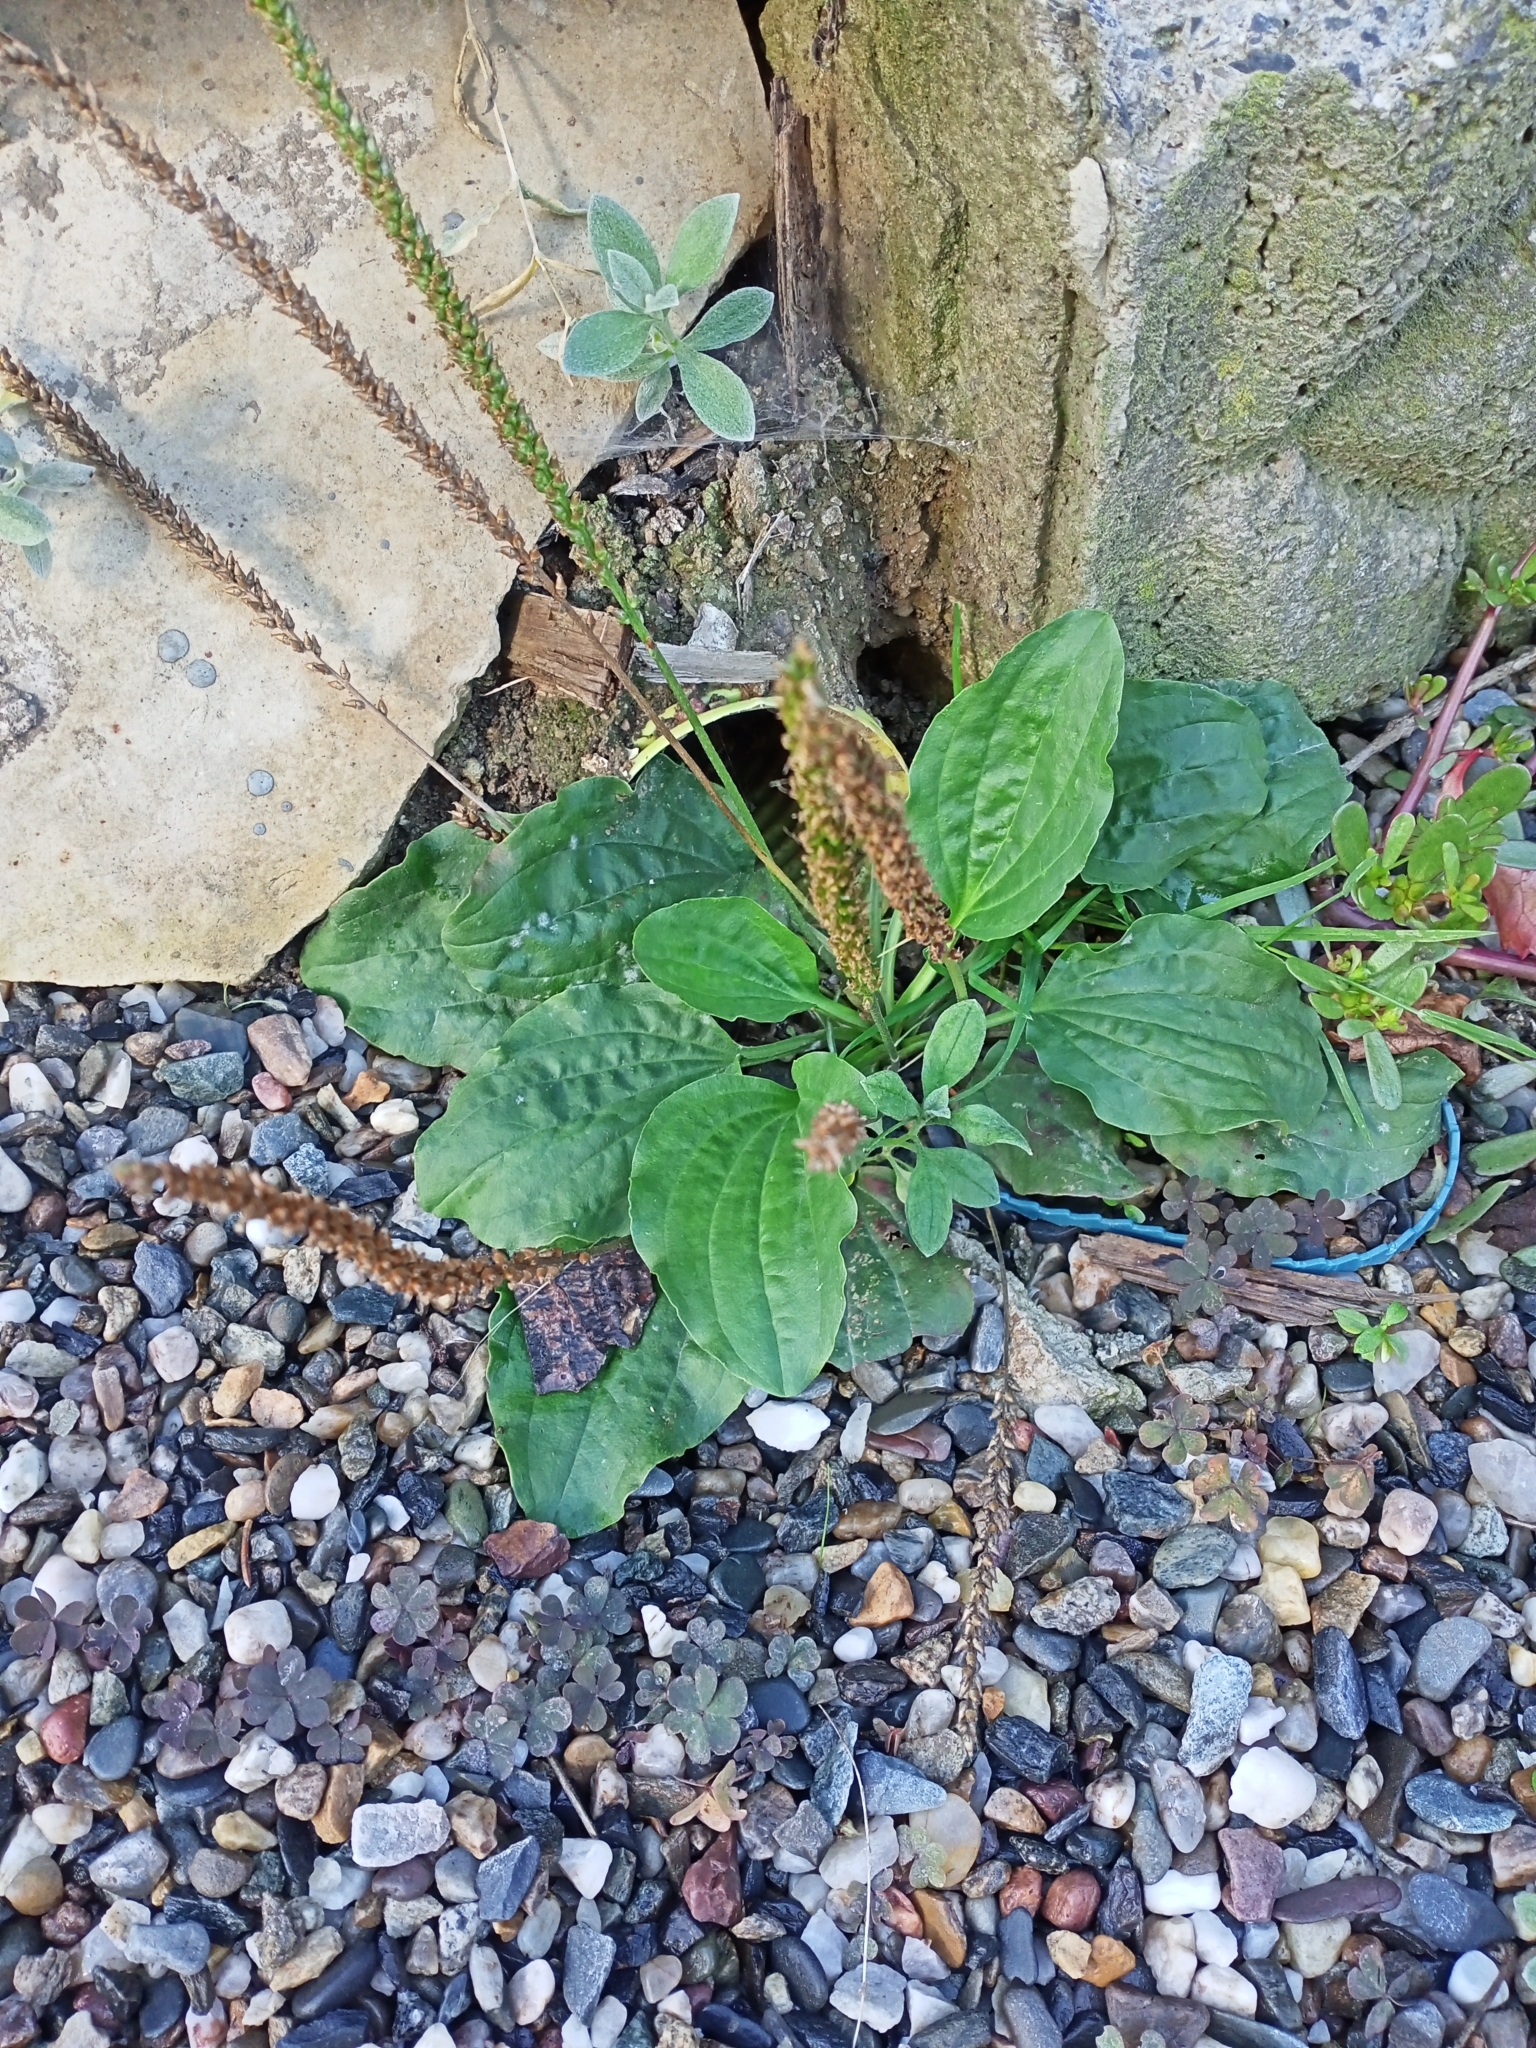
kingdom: Plantae
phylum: Tracheophyta
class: Magnoliopsida
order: Lamiales
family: Plantaginaceae
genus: Plantago
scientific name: Plantago major
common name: Common plantain
